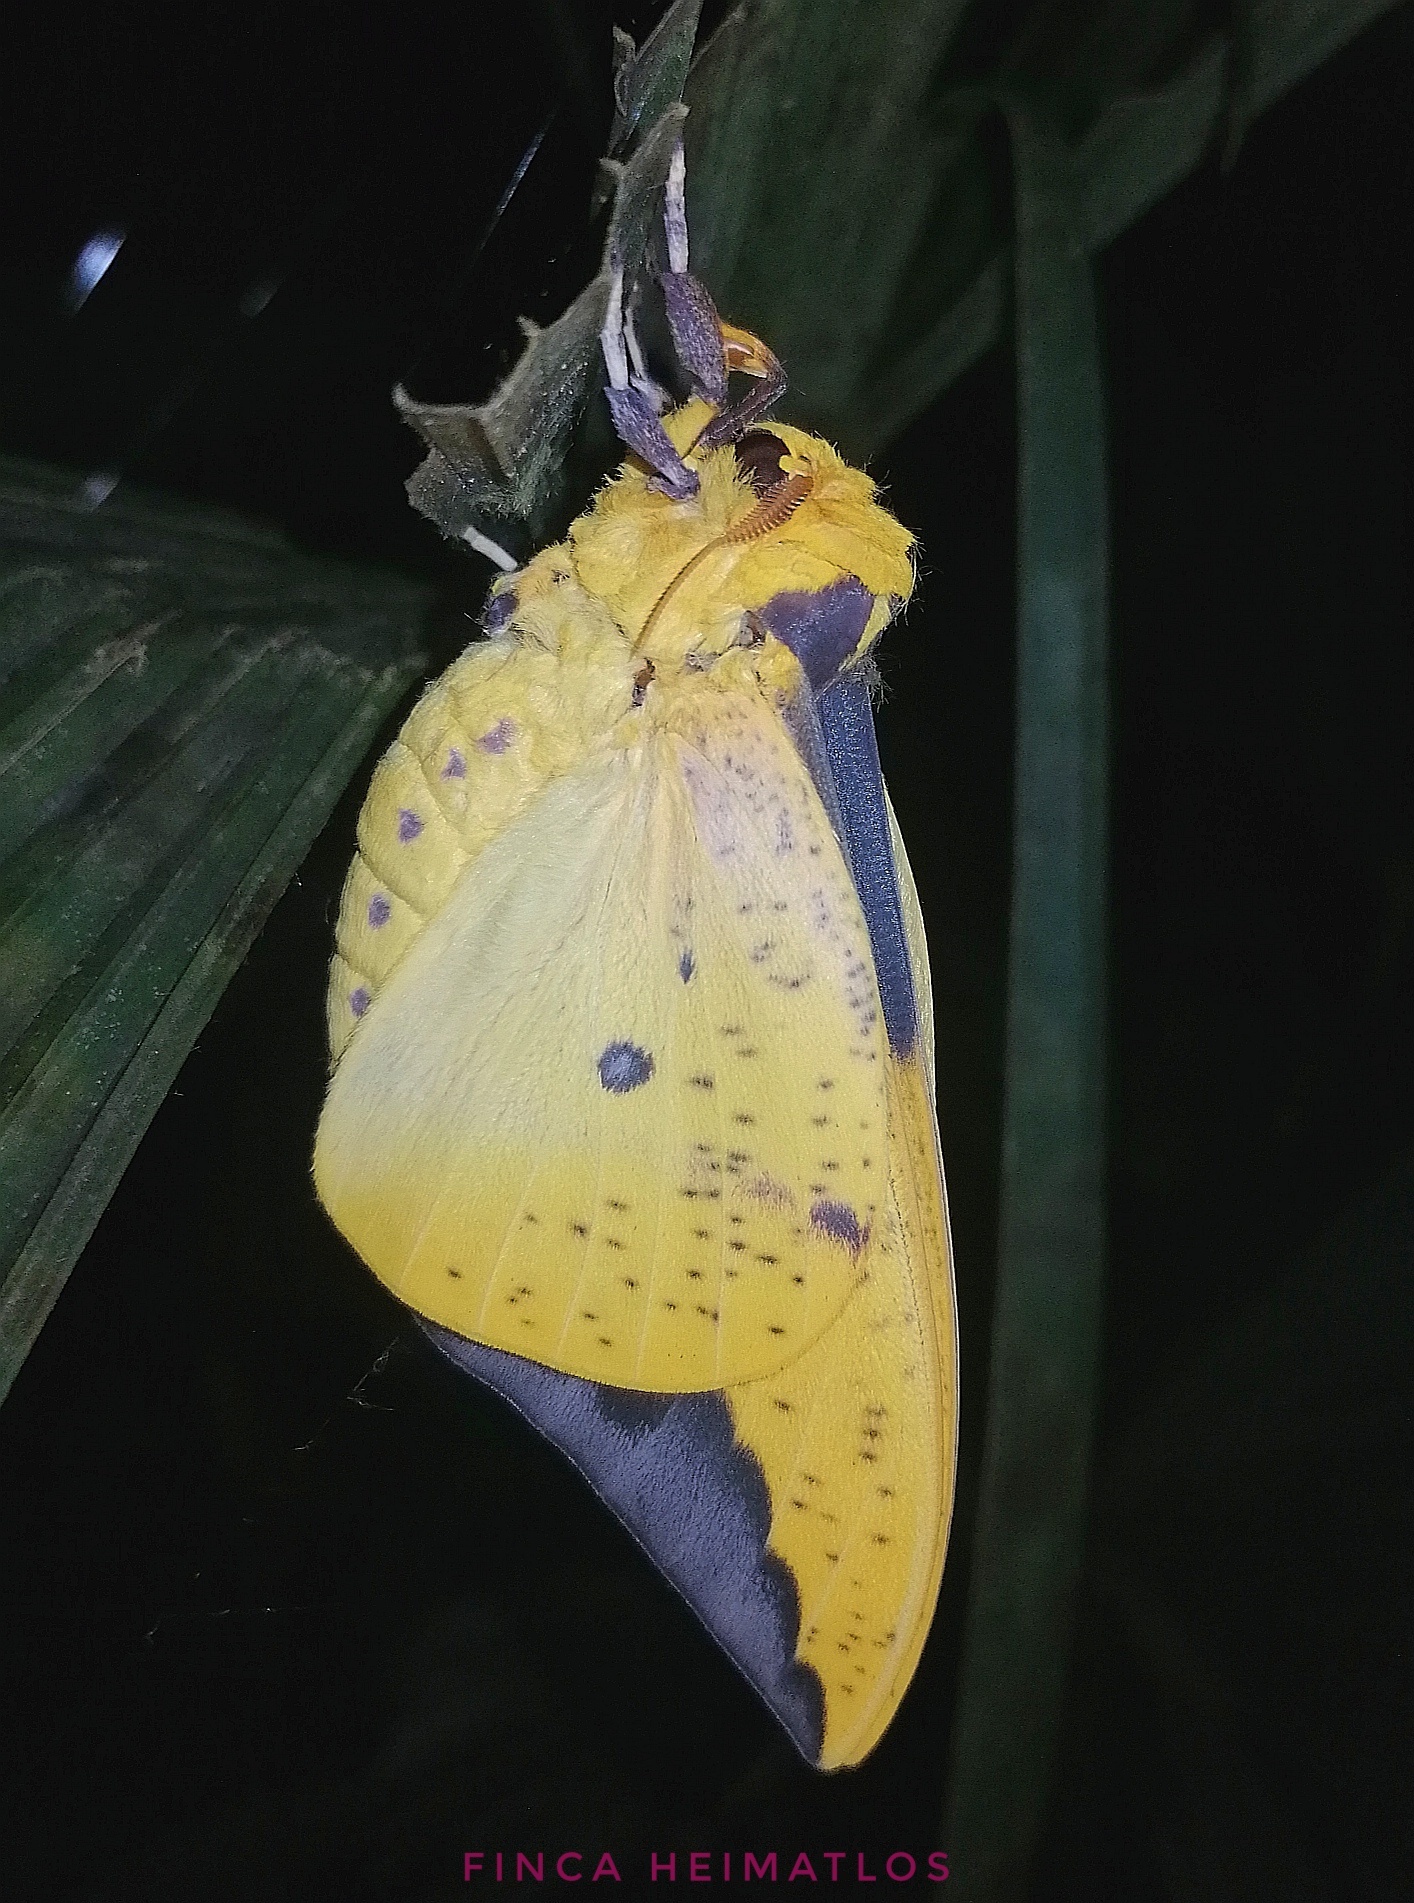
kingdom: Animalia
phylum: Arthropoda
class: Insecta
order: Lepidoptera
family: Saturniidae
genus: Eacles
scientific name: Eacles imperialis
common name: Imperial moth
